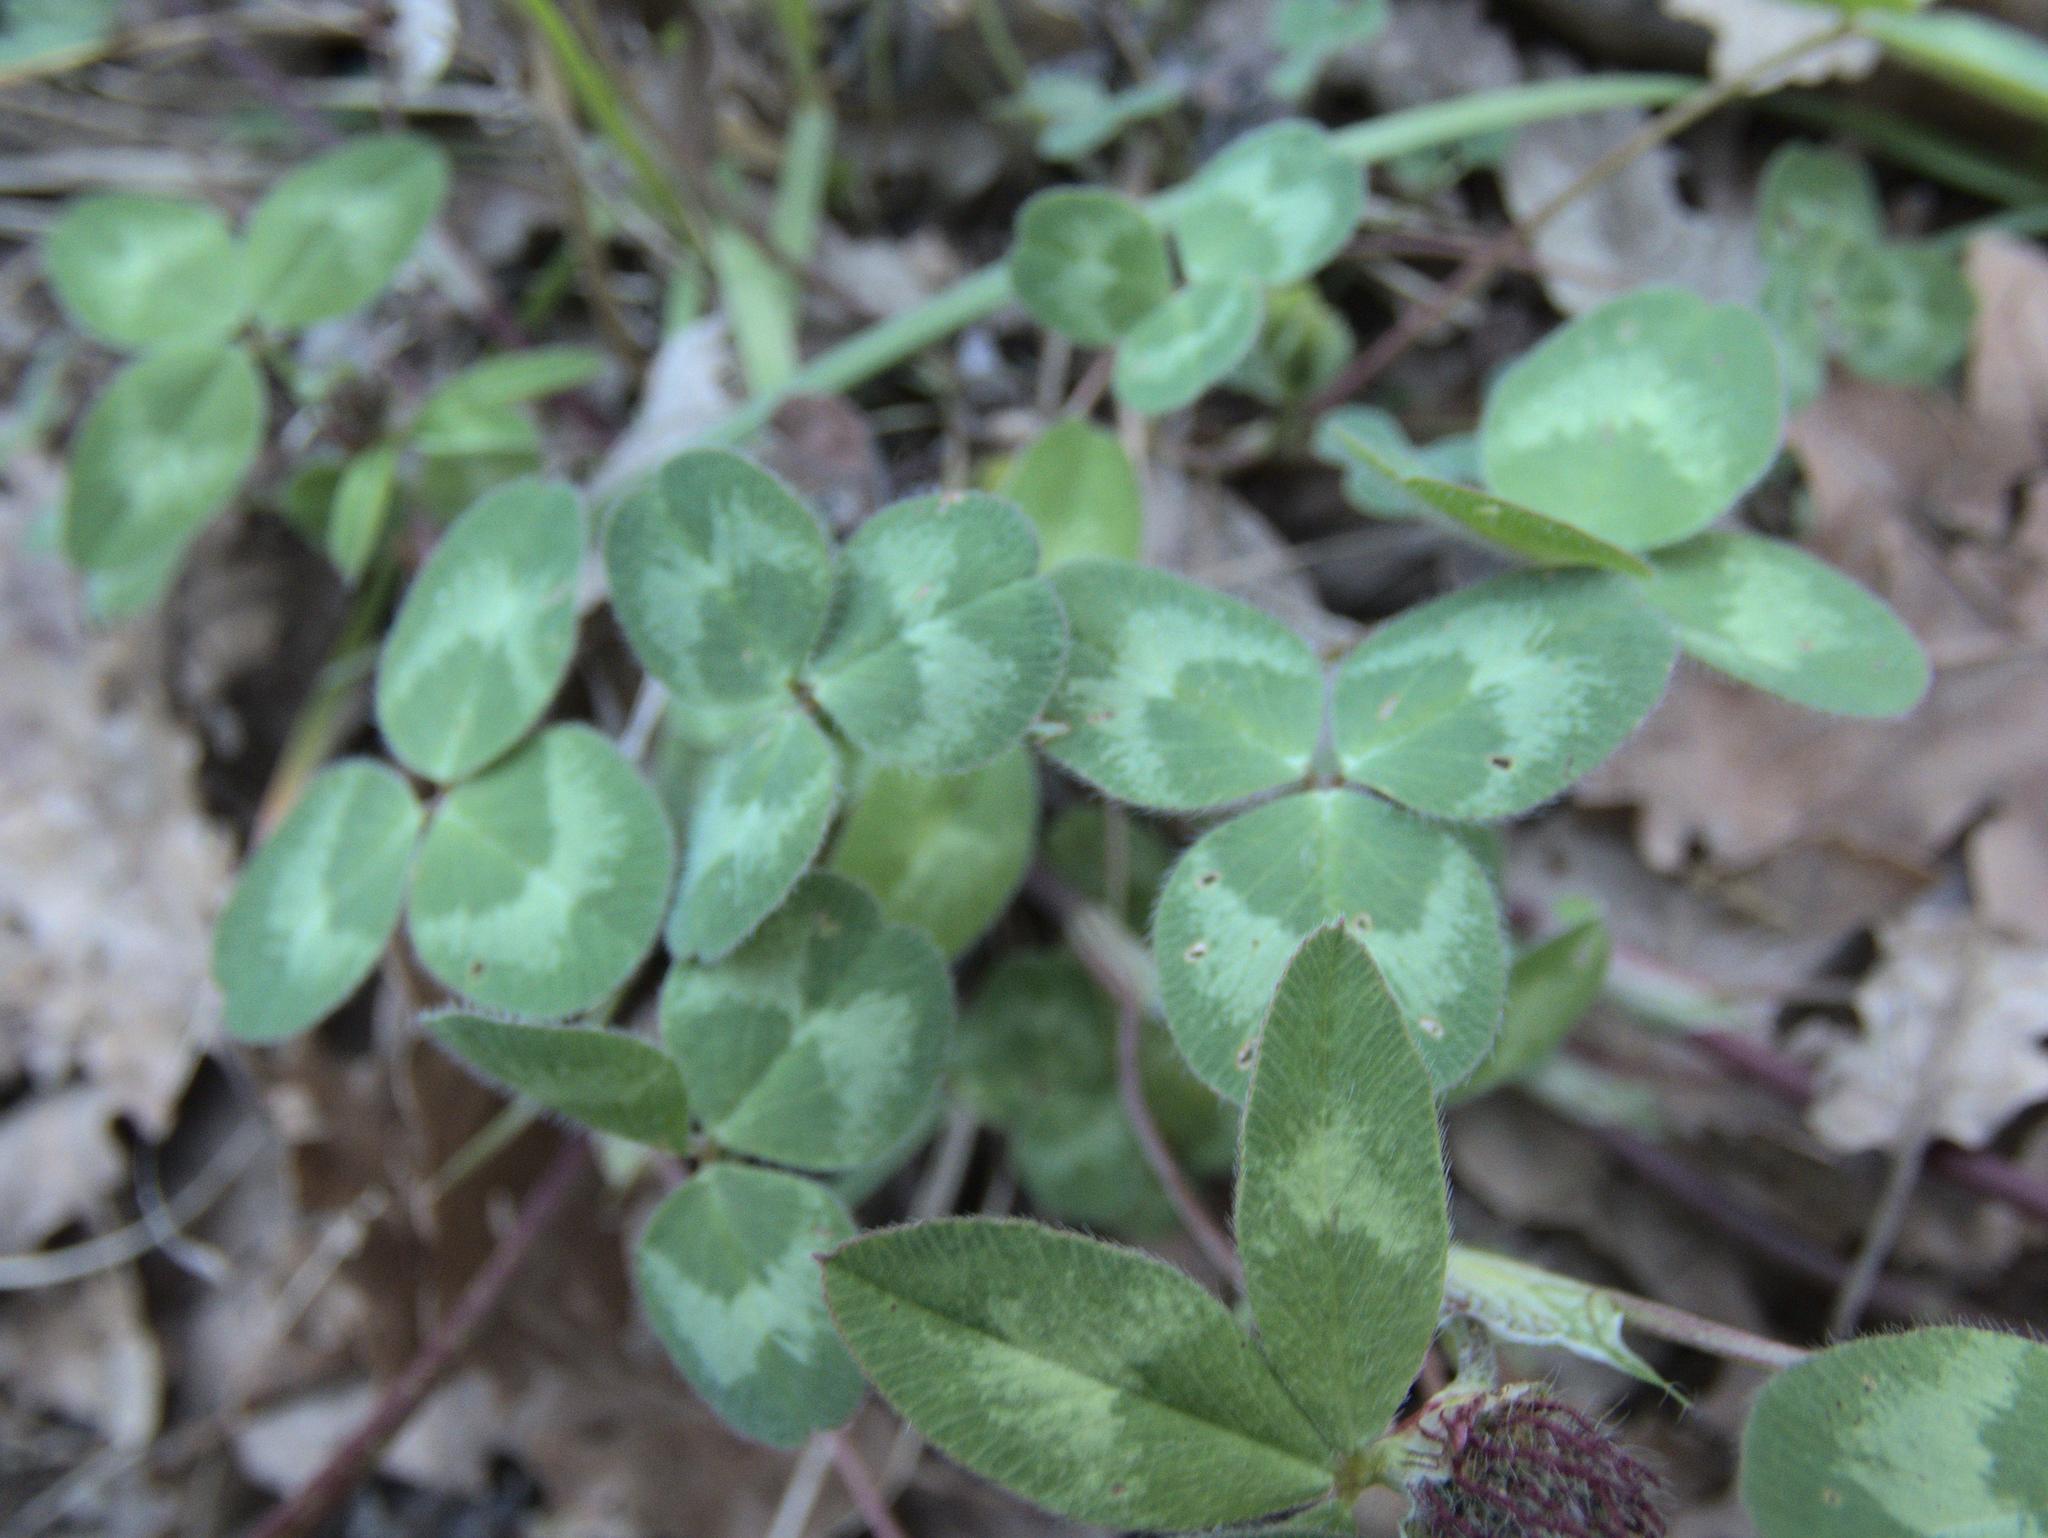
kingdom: Plantae
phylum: Tracheophyta
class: Magnoliopsida
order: Fabales
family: Fabaceae
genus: Trifolium
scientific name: Trifolium pratense
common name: Red clover
